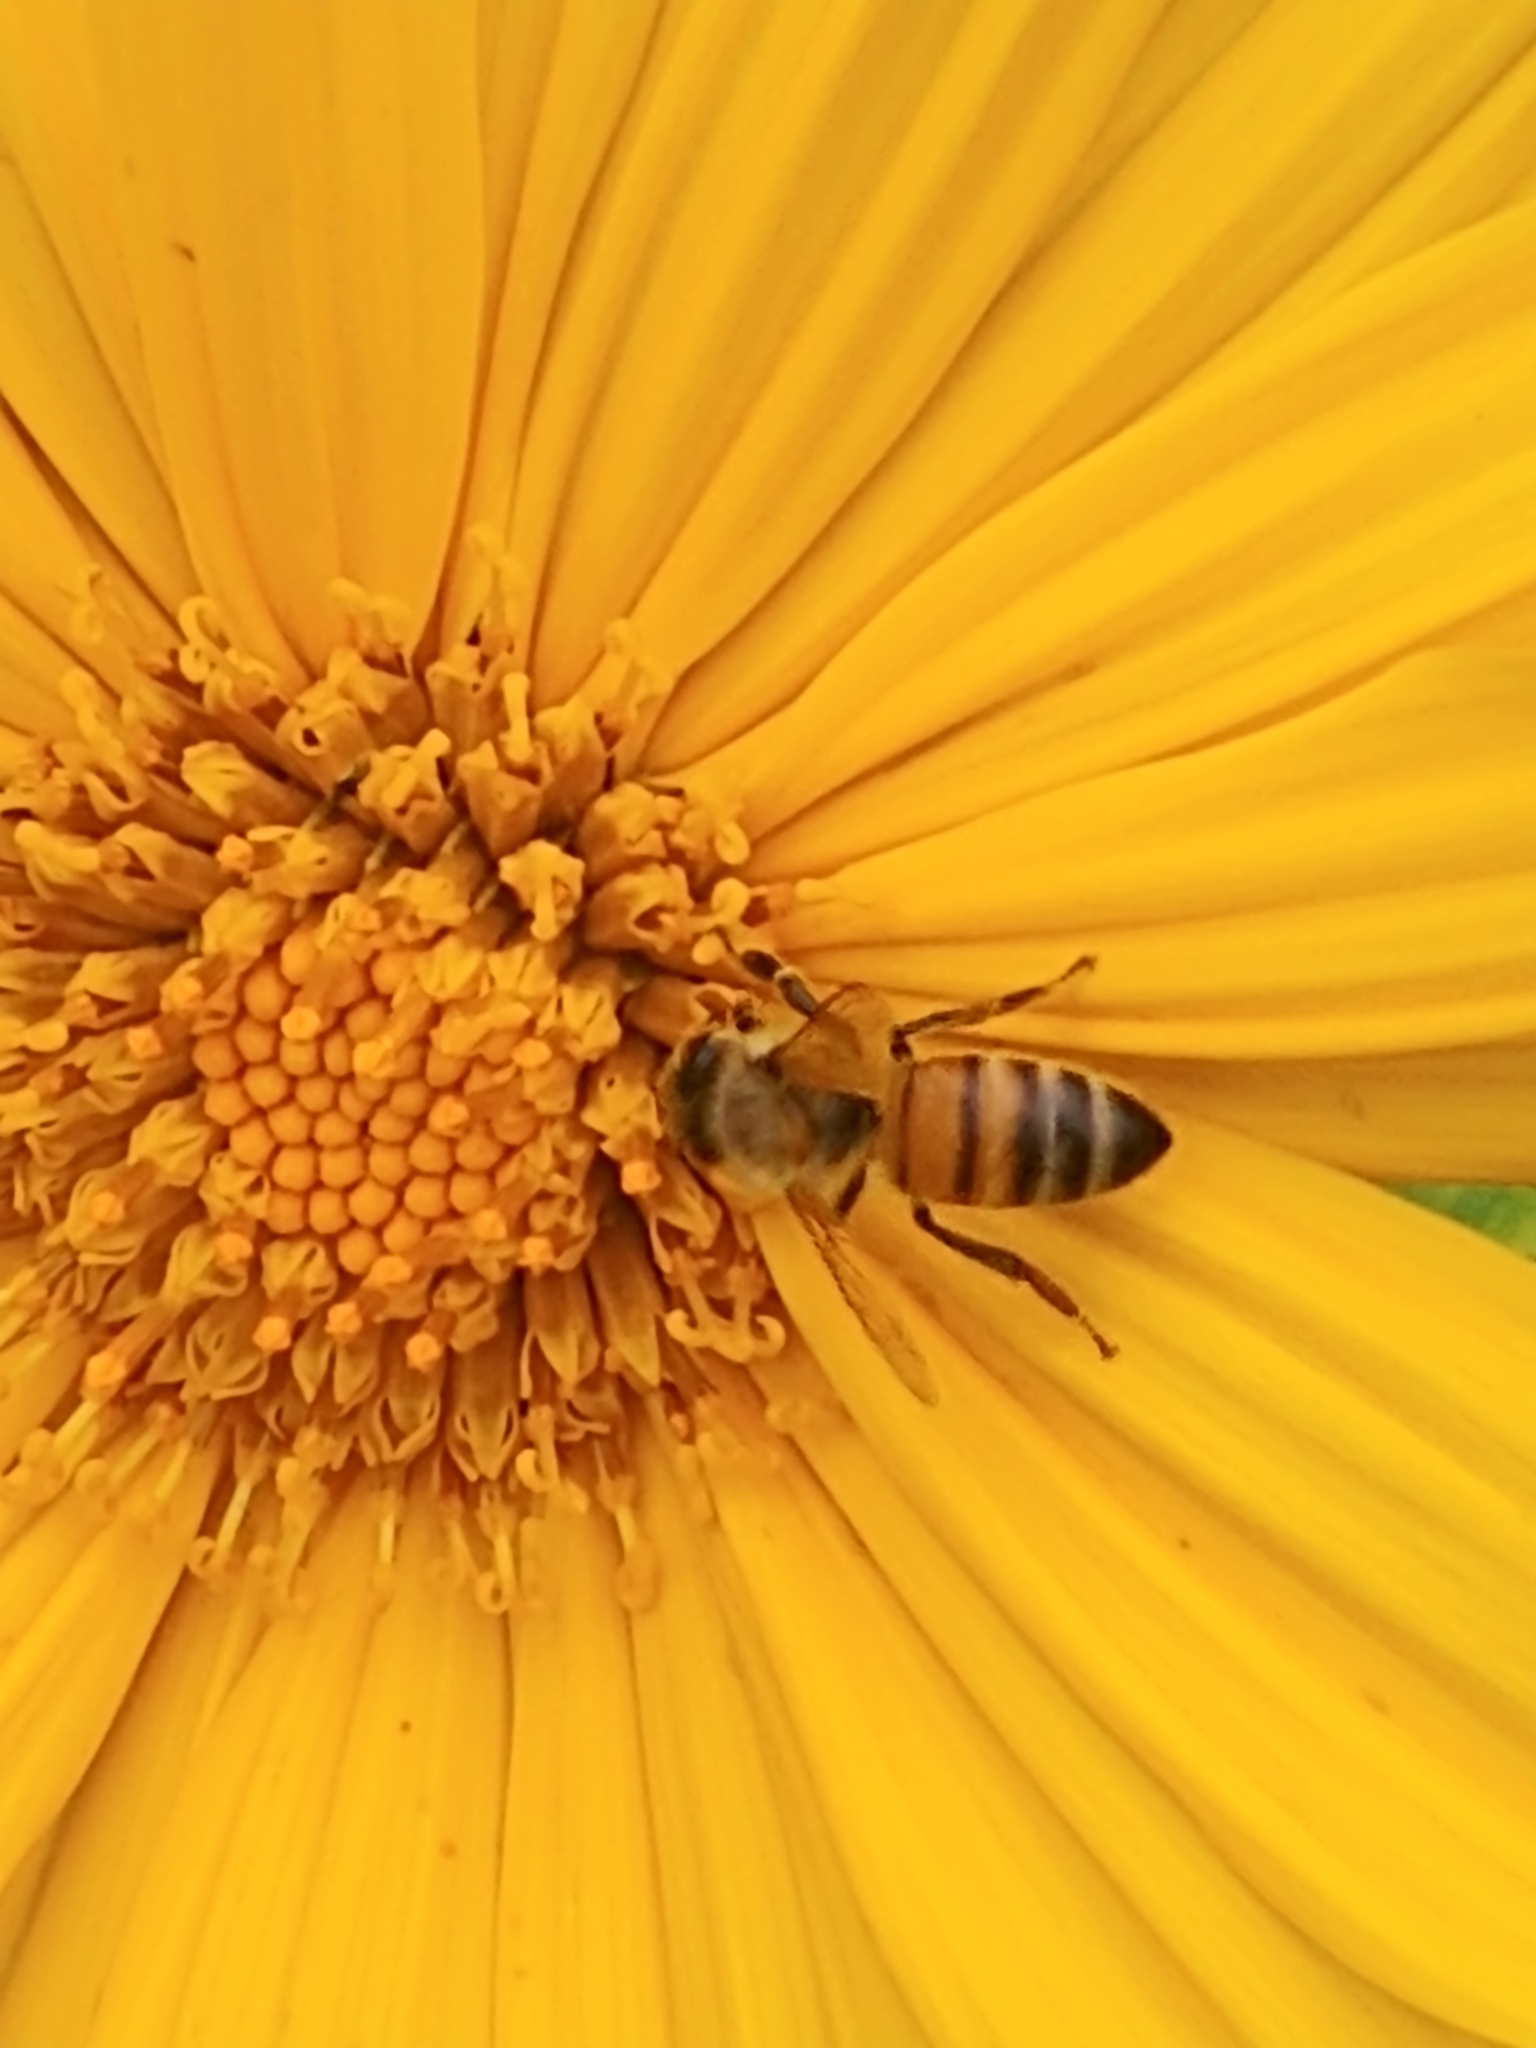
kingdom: Animalia
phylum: Arthropoda
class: Insecta
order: Hymenoptera
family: Apidae
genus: Apis
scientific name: Apis mellifera
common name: Honey bee
